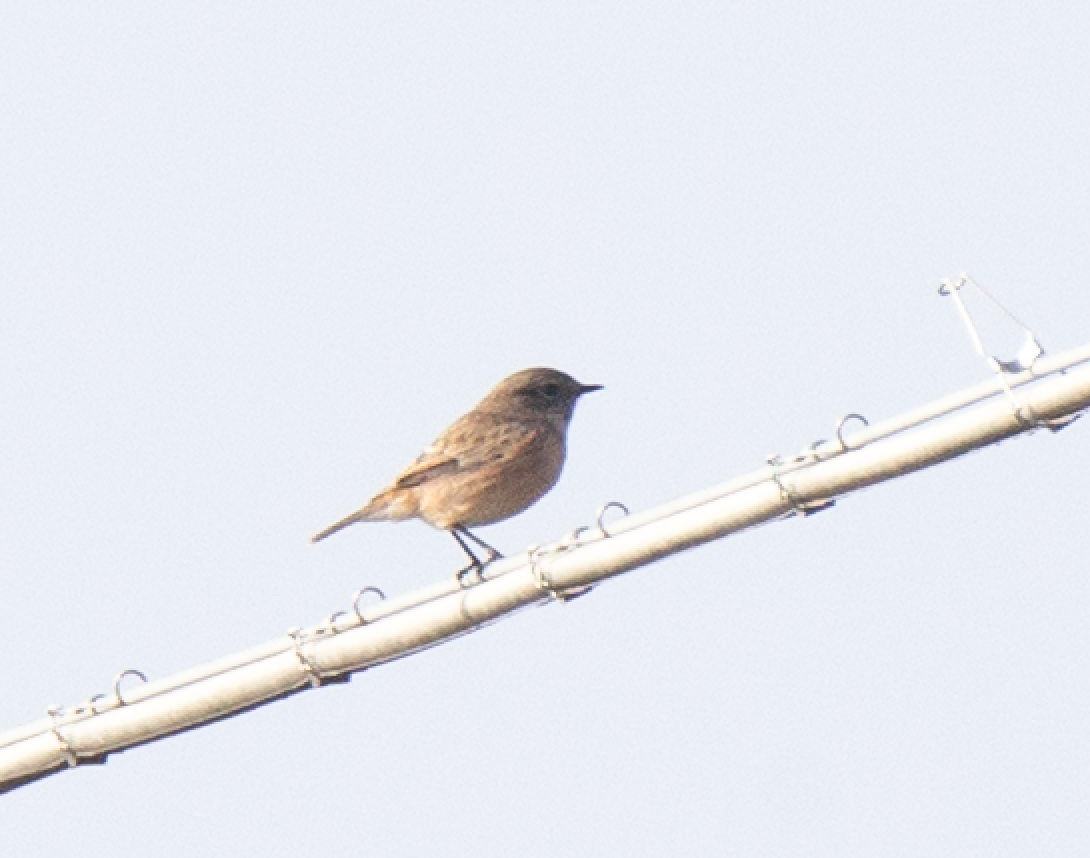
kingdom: Animalia
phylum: Chordata
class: Aves
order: Passeriformes
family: Muscicapidae
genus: Saxicola
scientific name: Saxicola rubicola
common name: European stonechat
